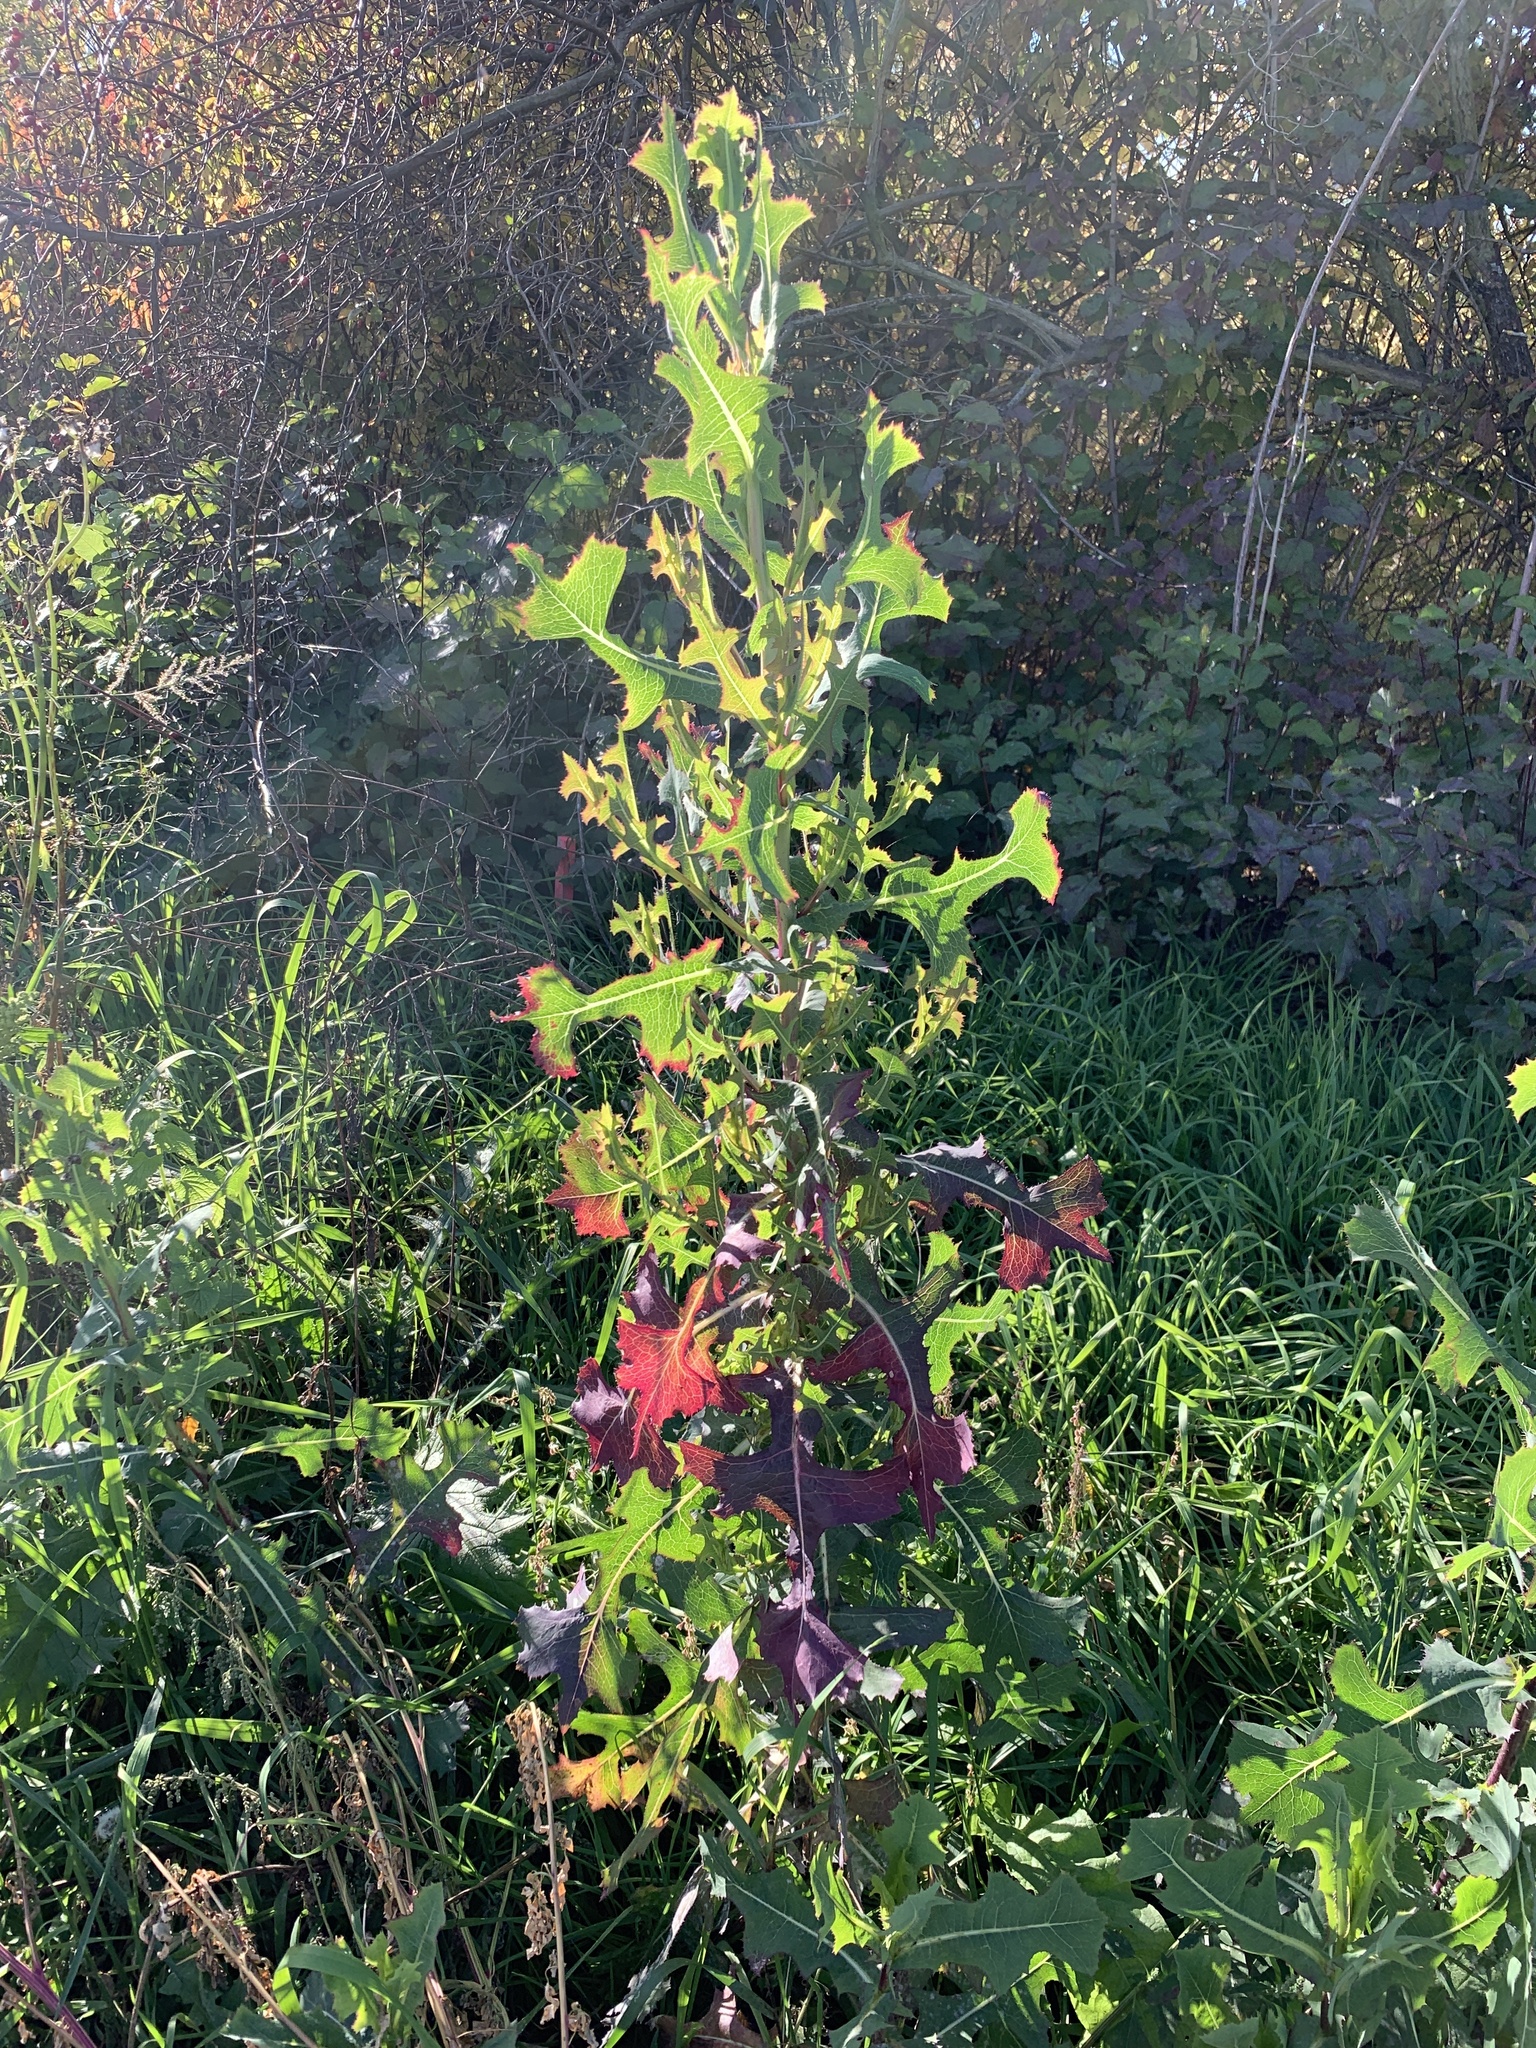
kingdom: Plantae
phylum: Tracheophyta
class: Magnoliopsida
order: Asterales
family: Asteraceae
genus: Lactuca
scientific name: Lactuca serriola
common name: Prickly lettuce
